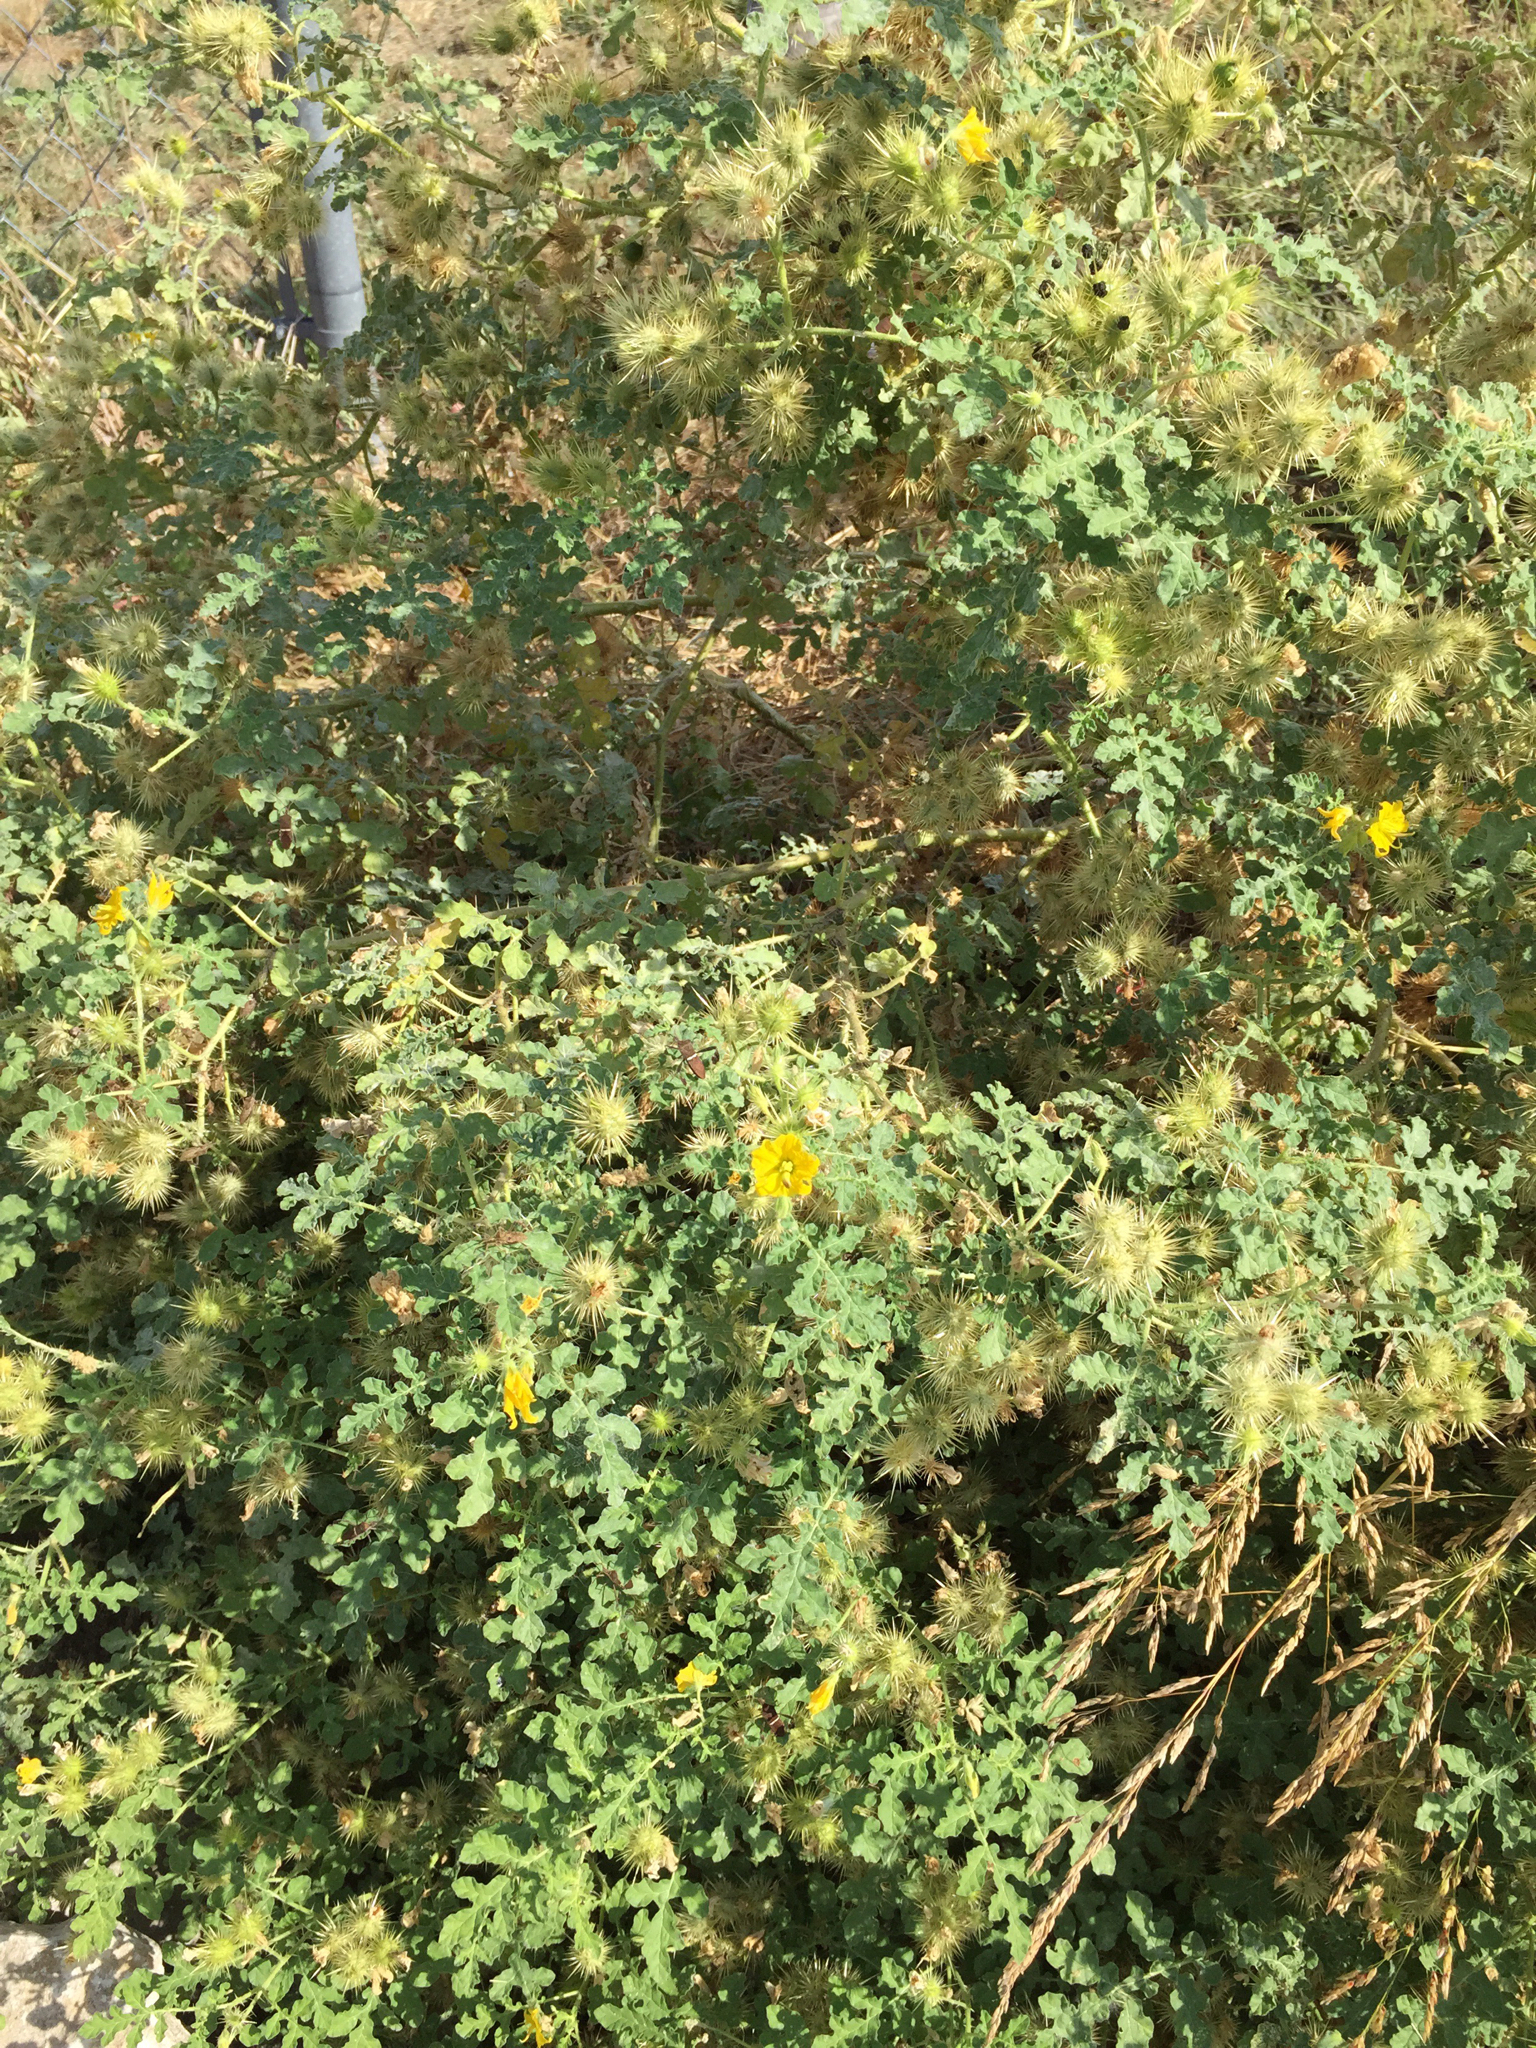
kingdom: Plantae
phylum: Tracheophyta
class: Magnoliopsida
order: Solanales
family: Solanaceae
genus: Solanum
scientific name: Solanum angustifolium
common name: Buffalobur nightshade
